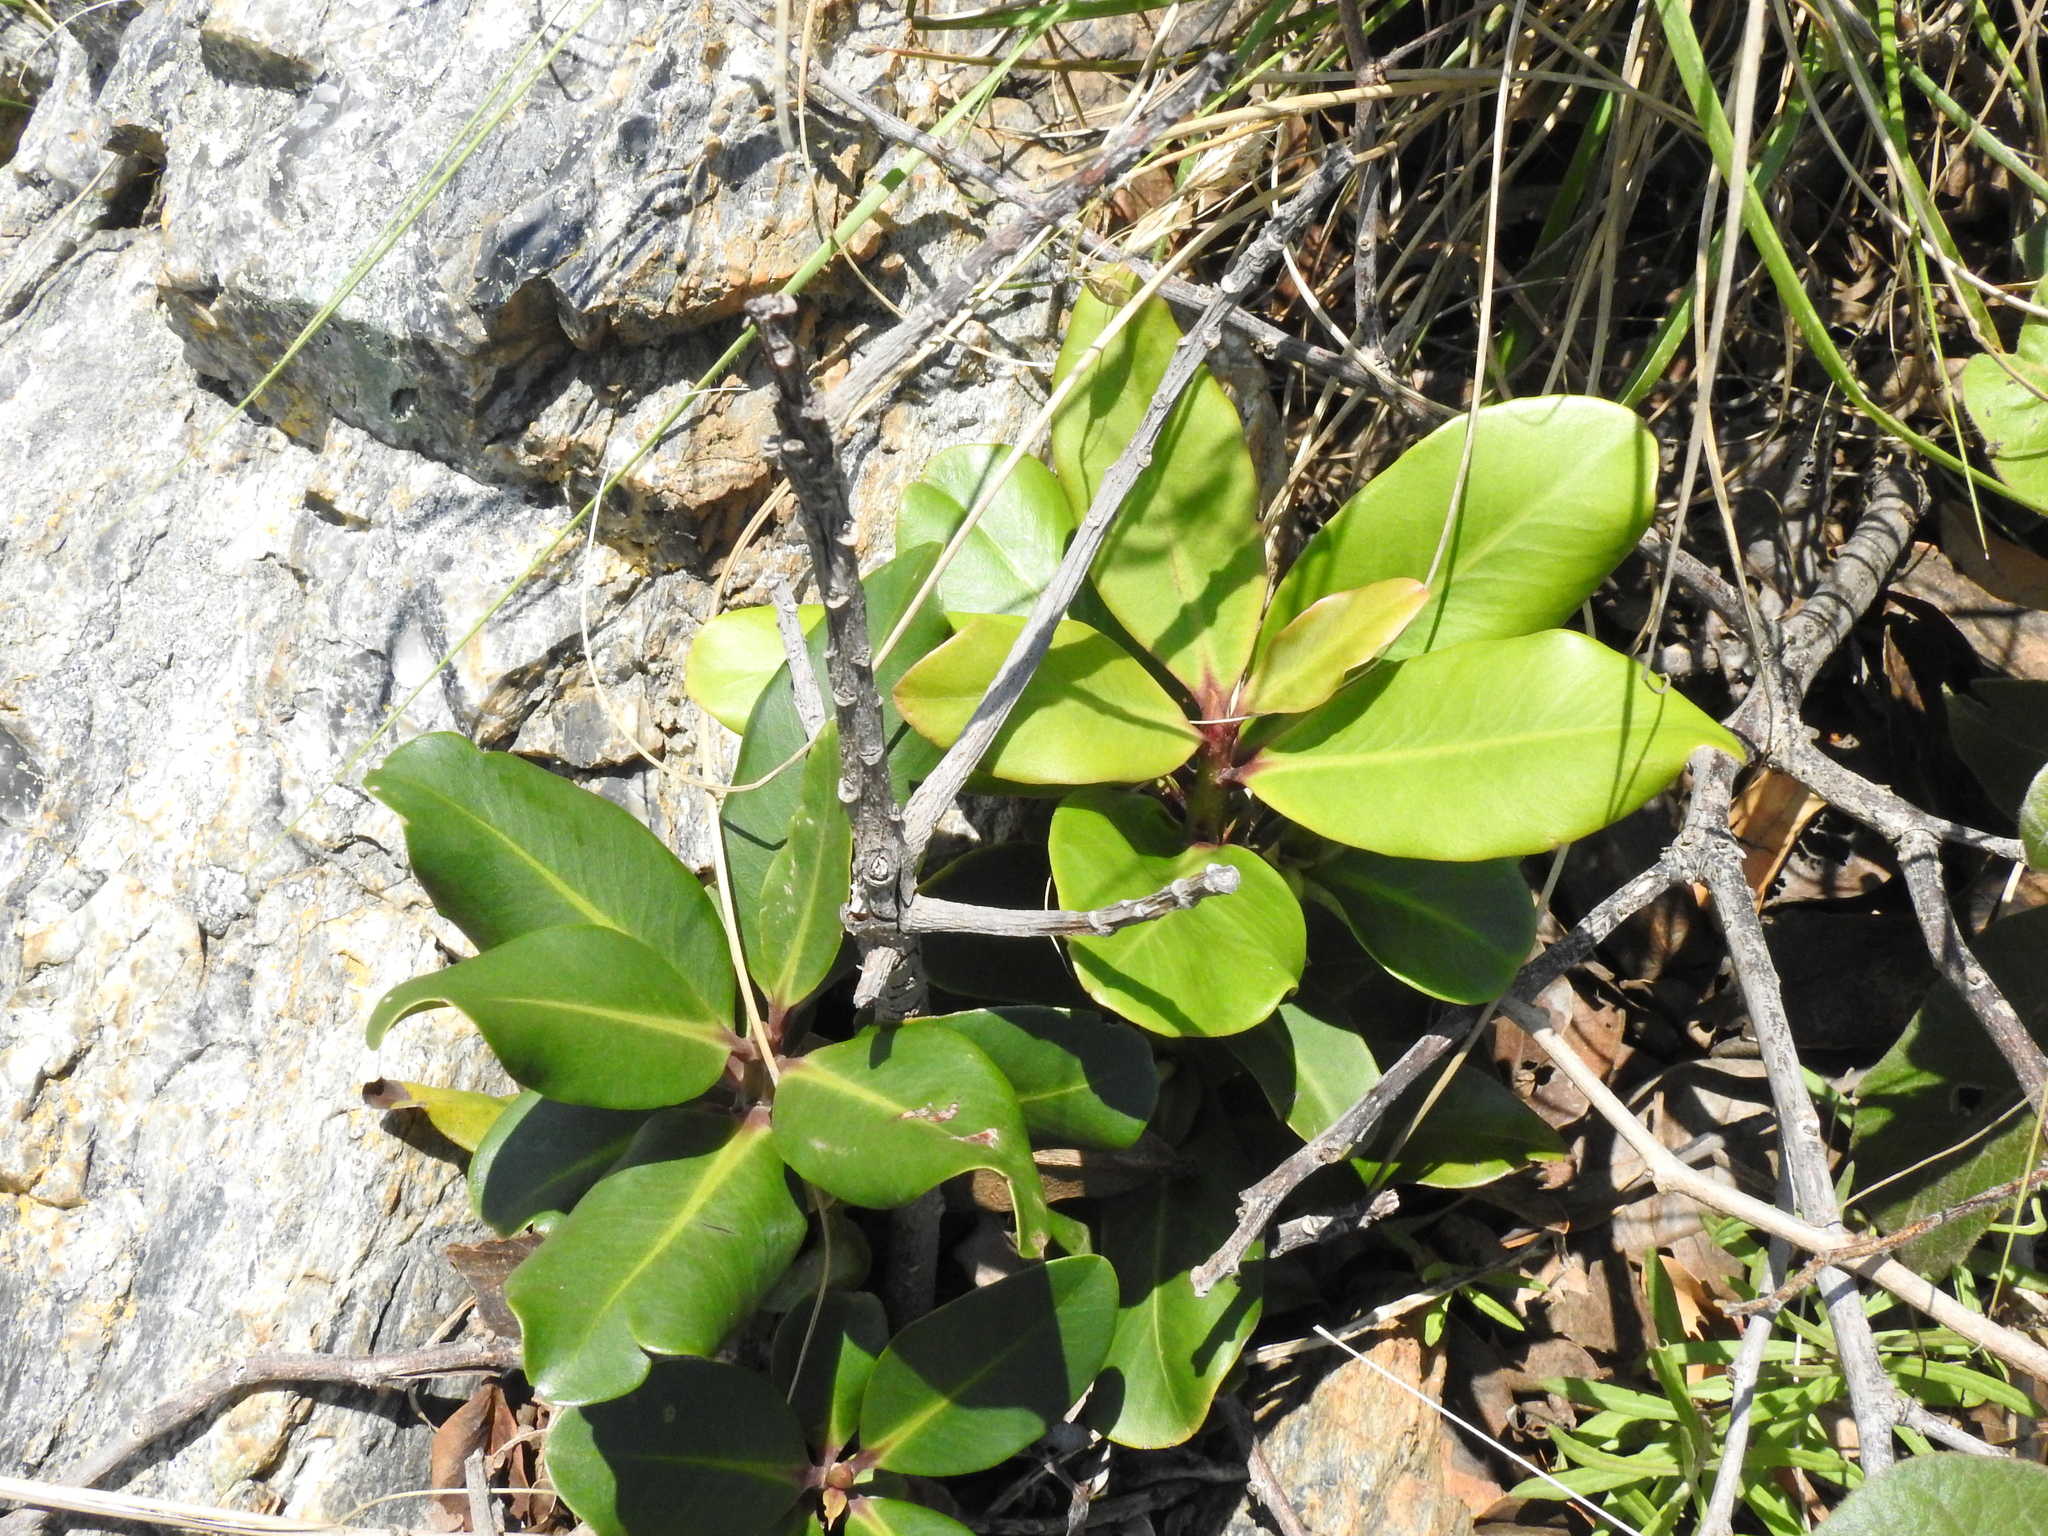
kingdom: Plantae
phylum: Tracheophyta
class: Magnoliopsida
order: Ericales
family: Primulaceae
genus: Myrsine
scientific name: Myrsine melanophloeos
